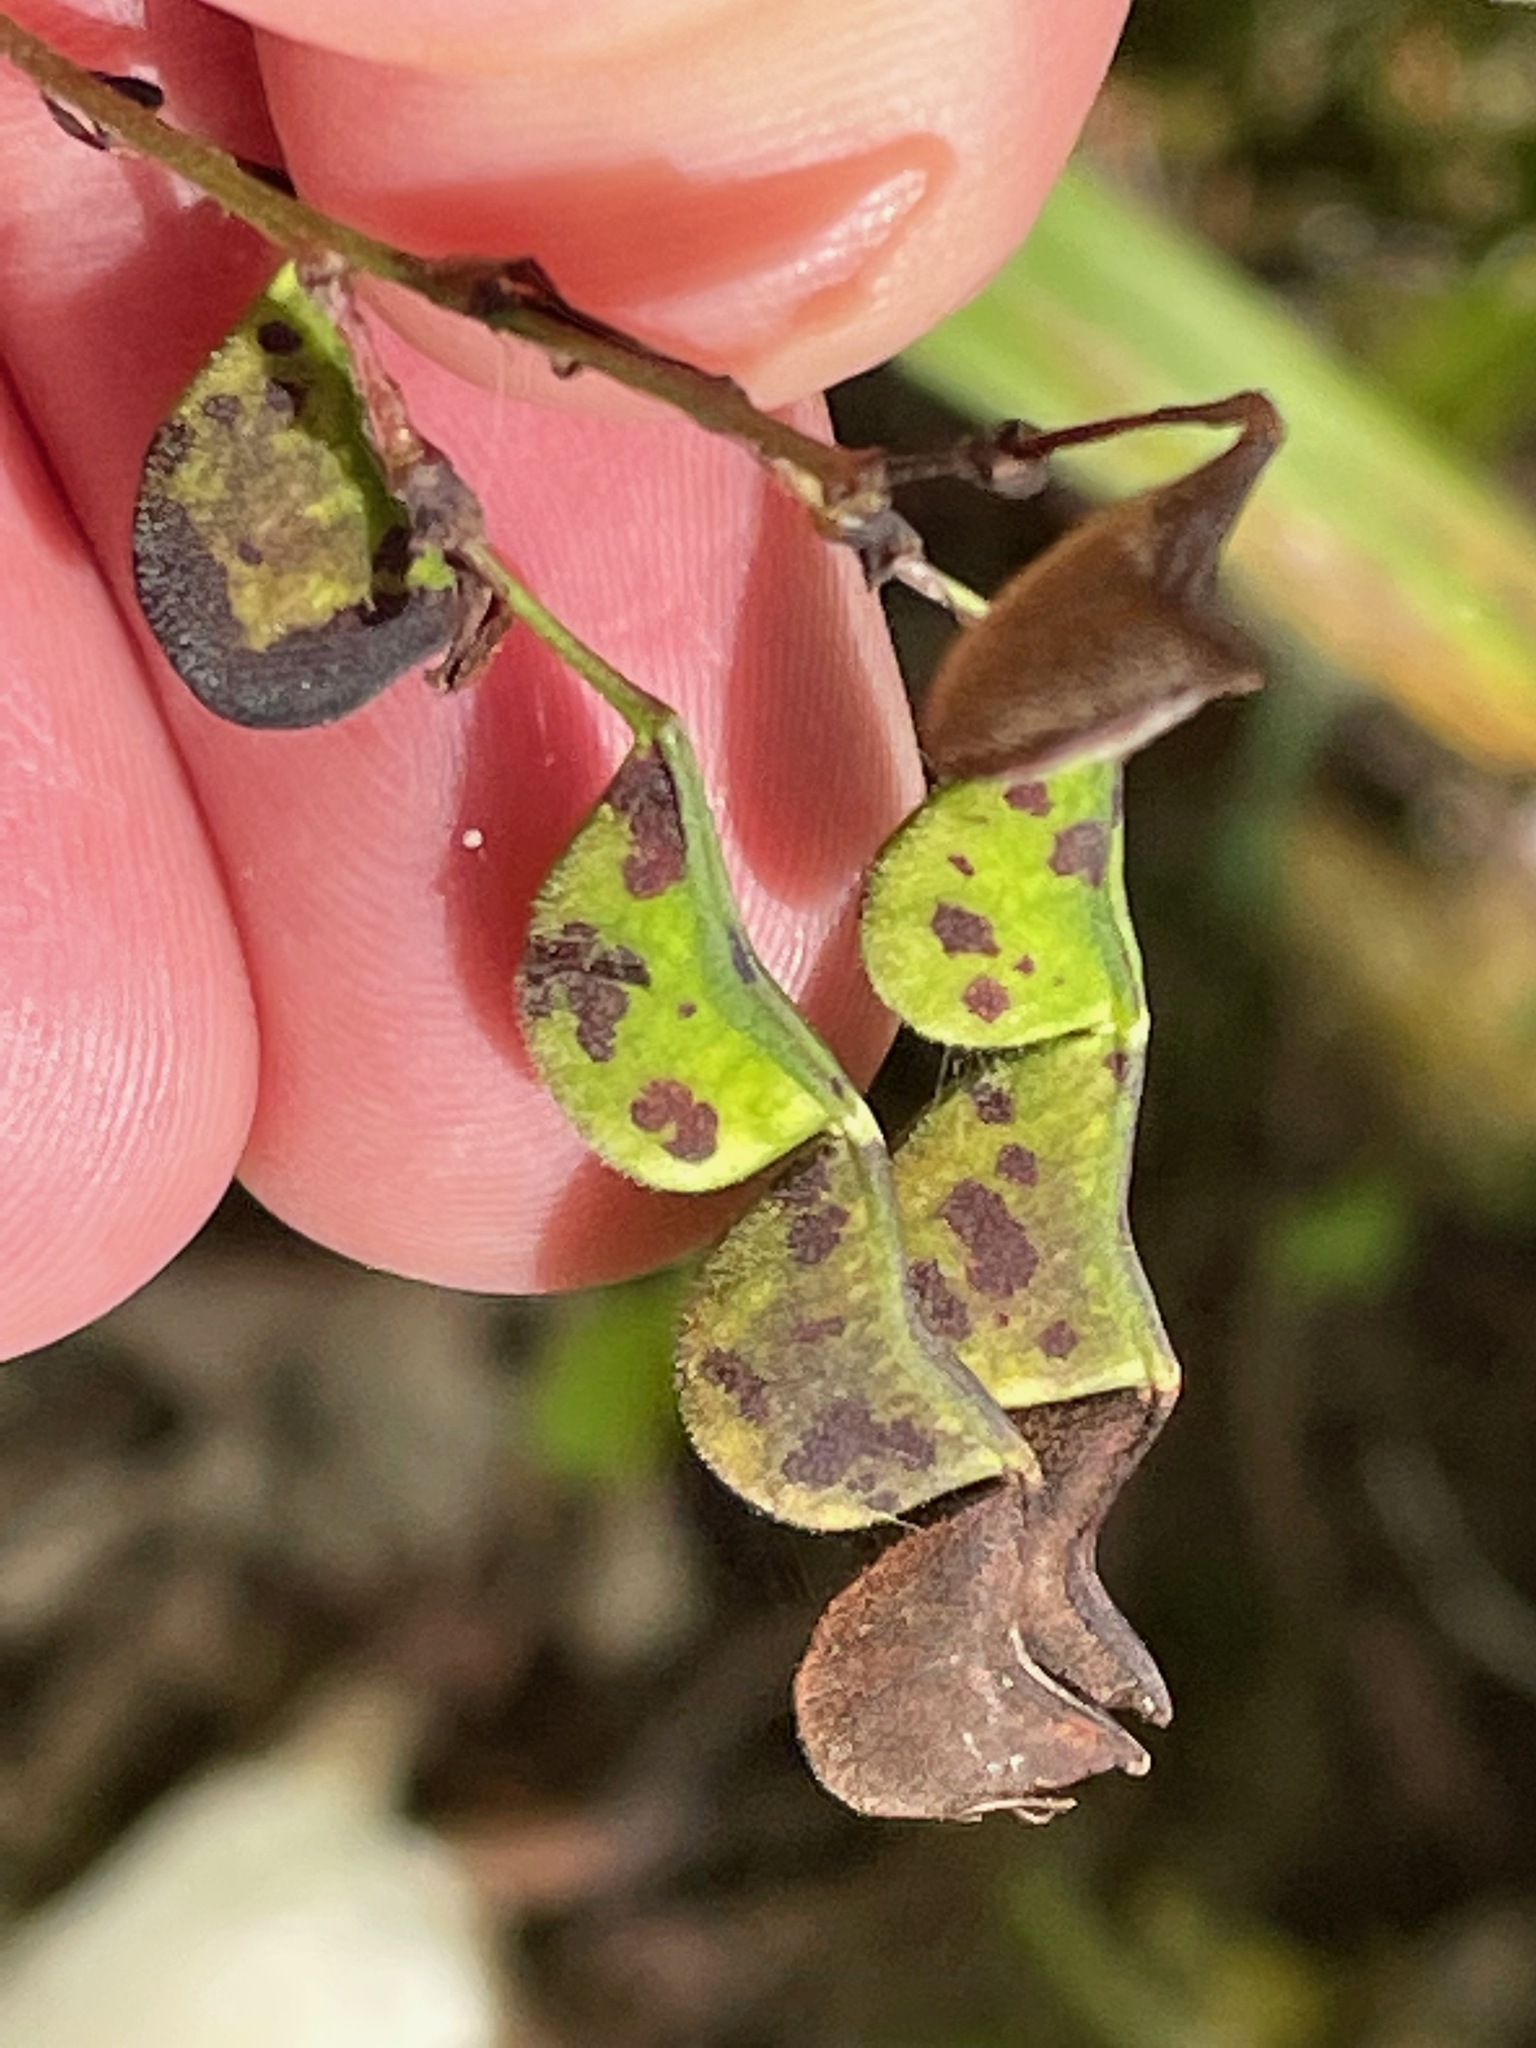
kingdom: Plantae
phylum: Tracheophyta
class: Magnoliopsida
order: Fabales
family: Fabaceae
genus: Hylodesmum
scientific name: Hylodesmum glutinosum
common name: Clustered-leaved tick-trefoil
